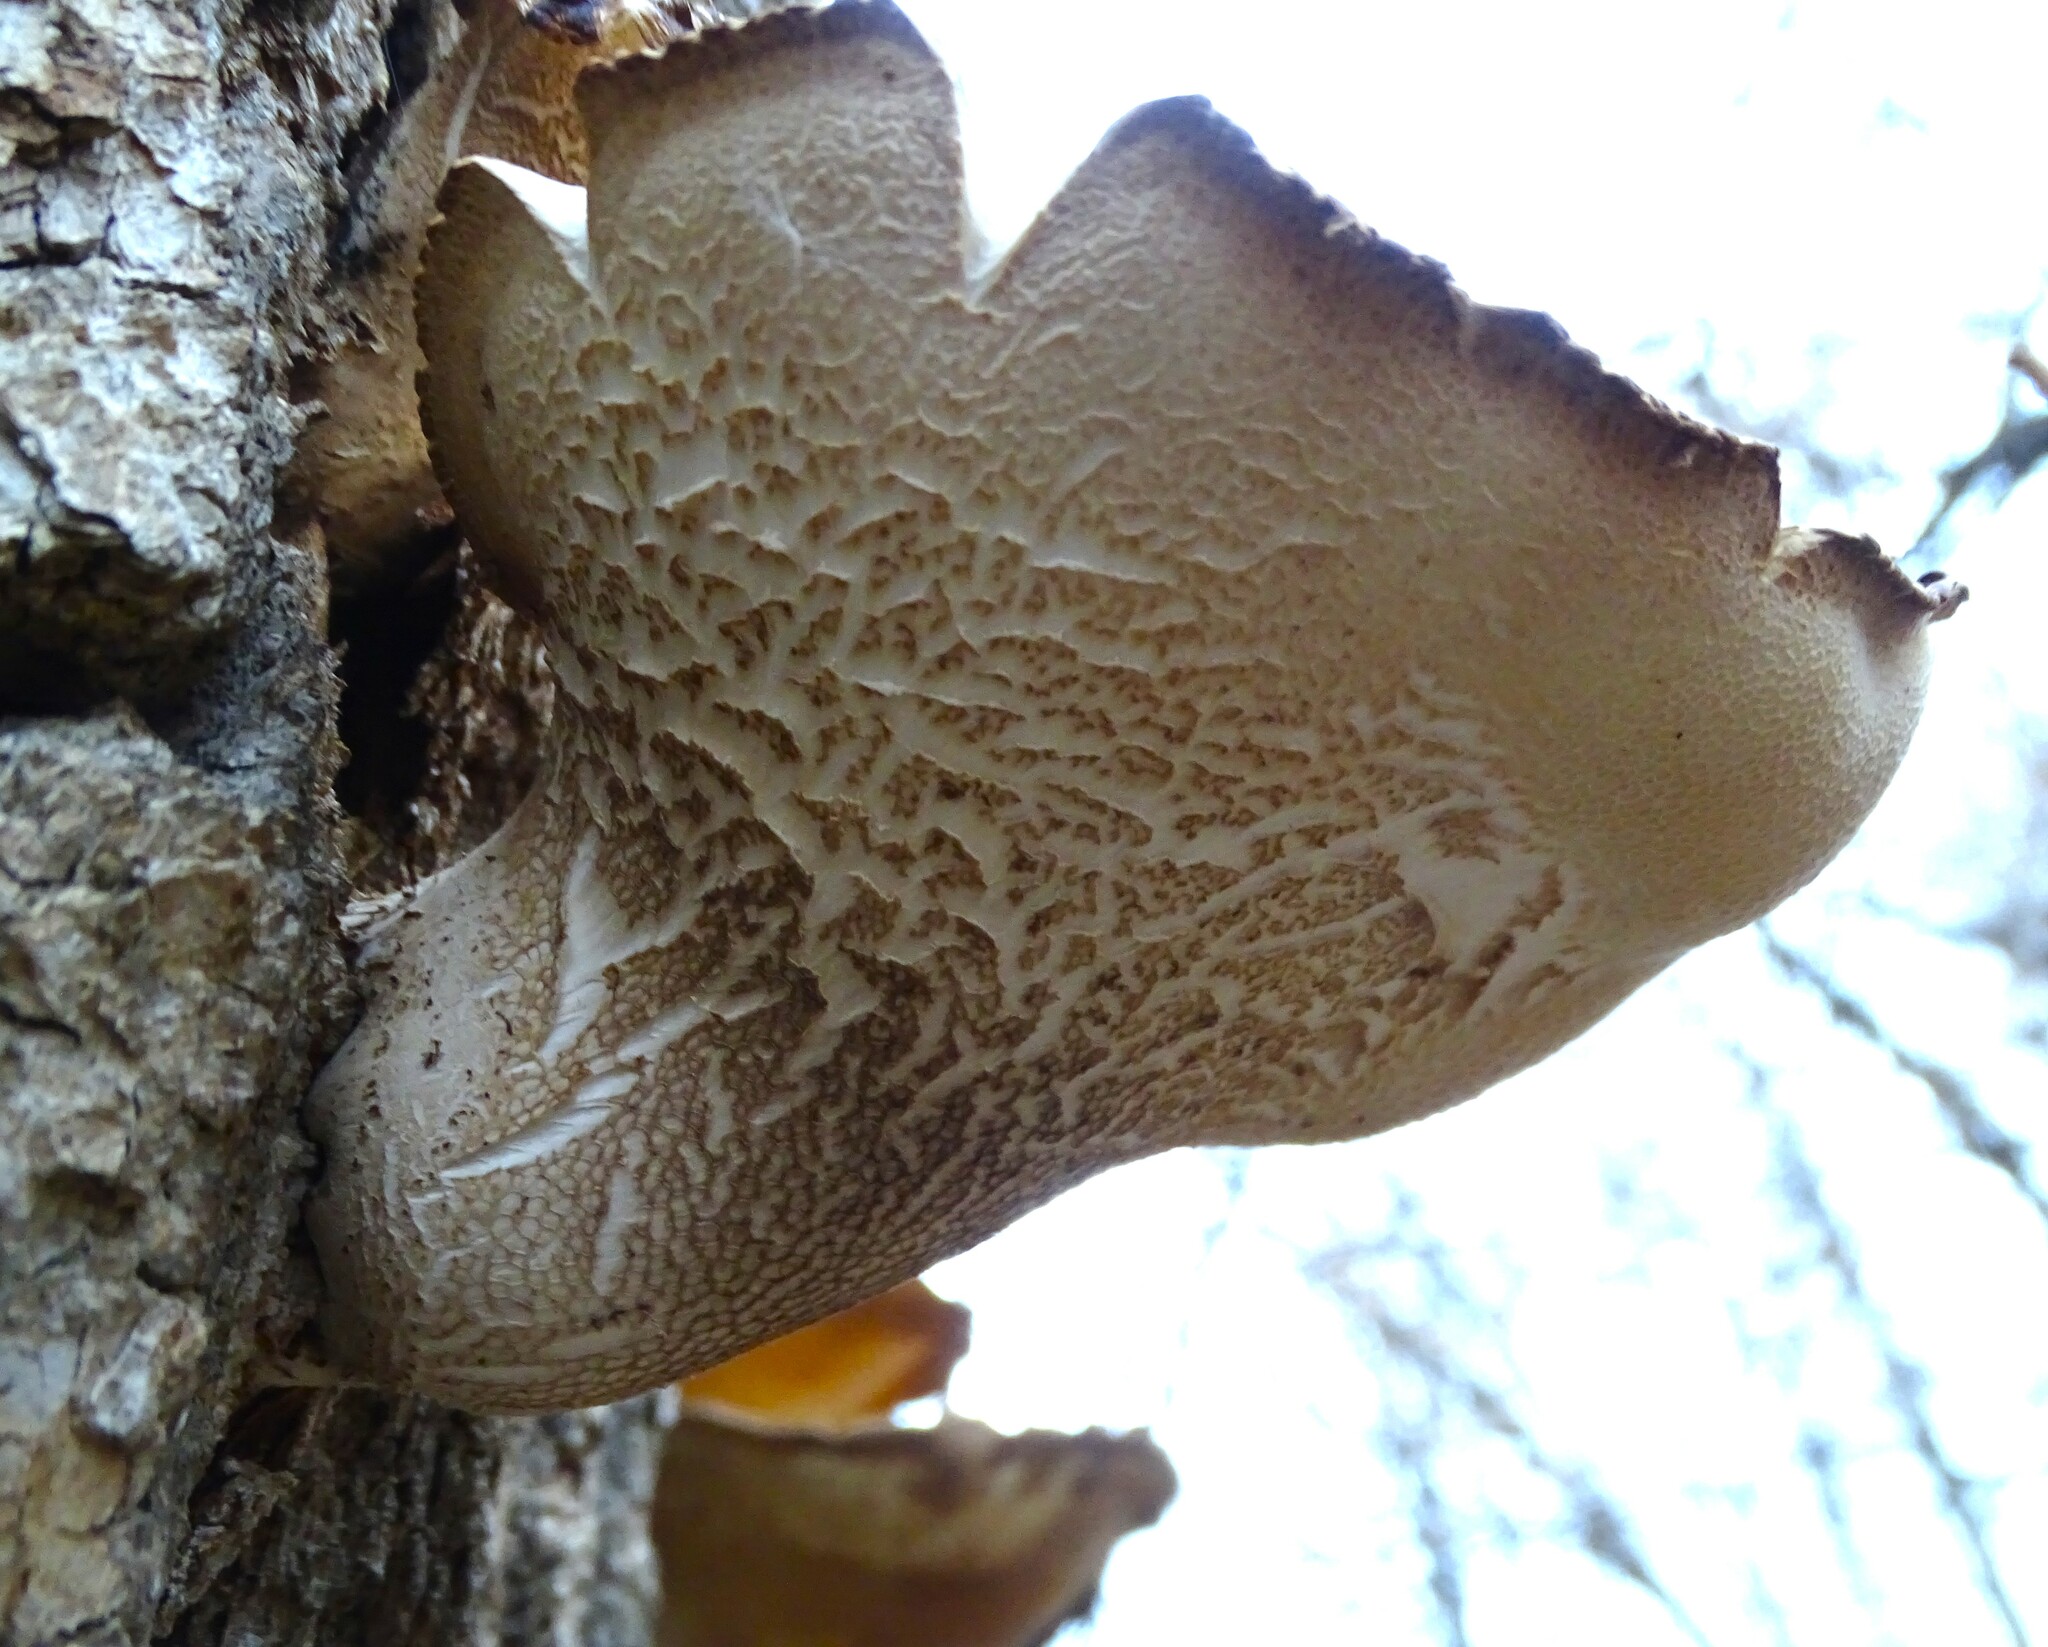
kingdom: Fungi
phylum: Basidiomycota
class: Agaricomycetes
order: Polyporales
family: Polyporaceae
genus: Cerioporus
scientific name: Cerioporus squamosus
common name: Dryad's saddle
